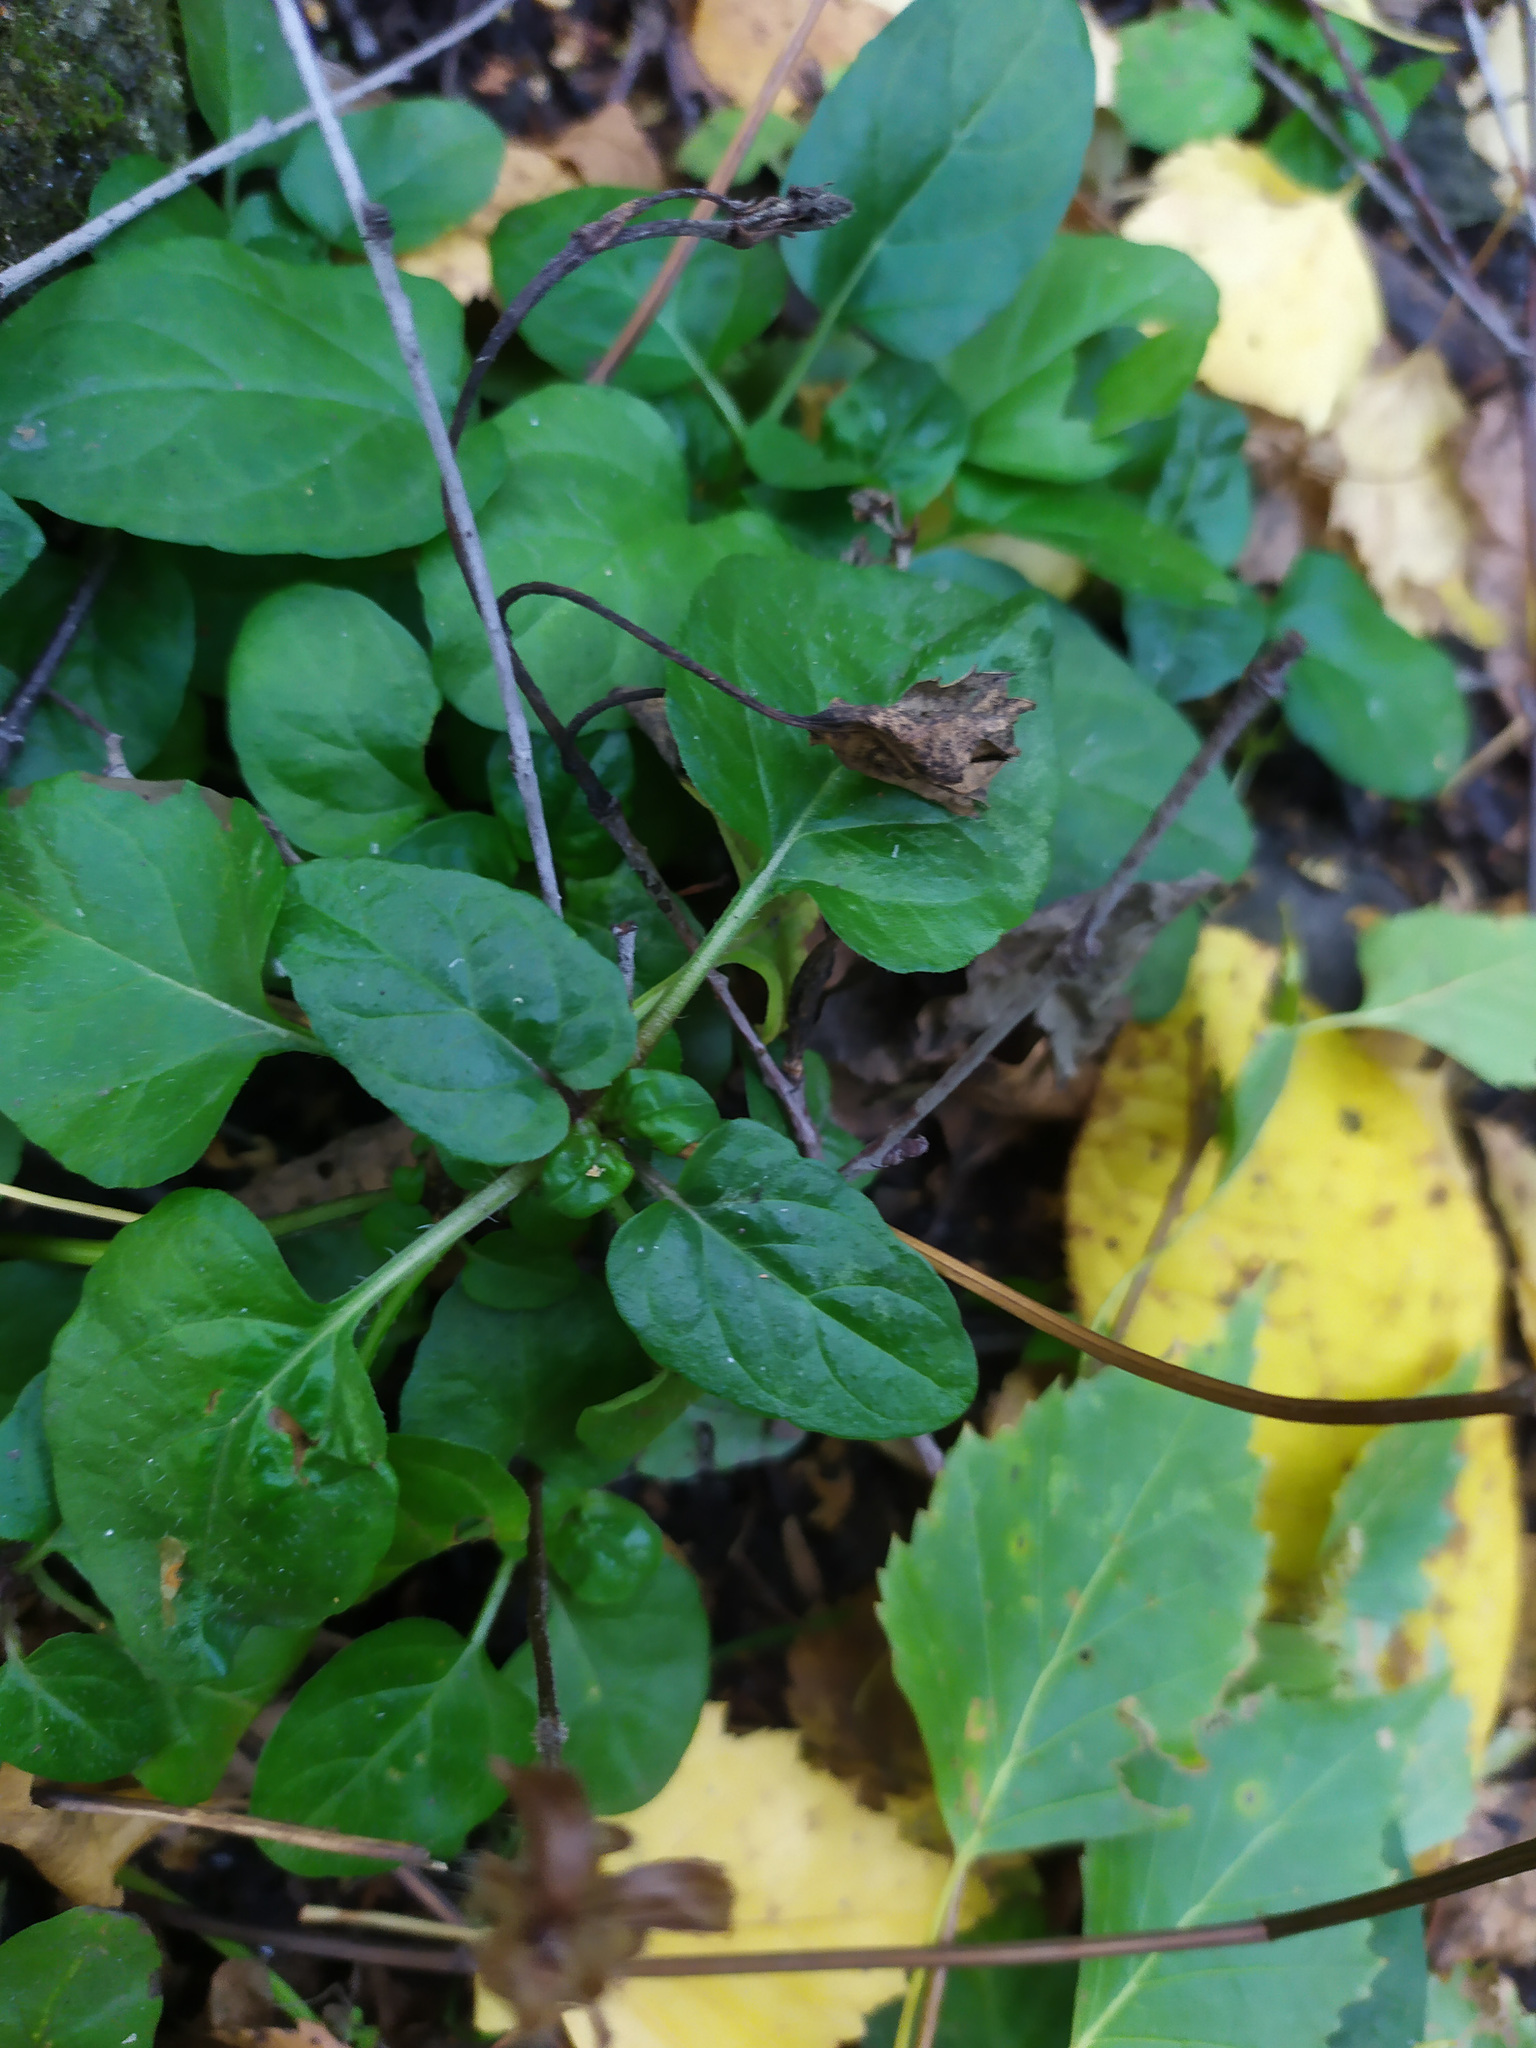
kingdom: Plantae
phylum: Tracheophyta
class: Magnoliopsida
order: Lamiales
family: Lamiaceae
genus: Prunella
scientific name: Prunella vulgaris
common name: Heal-all
